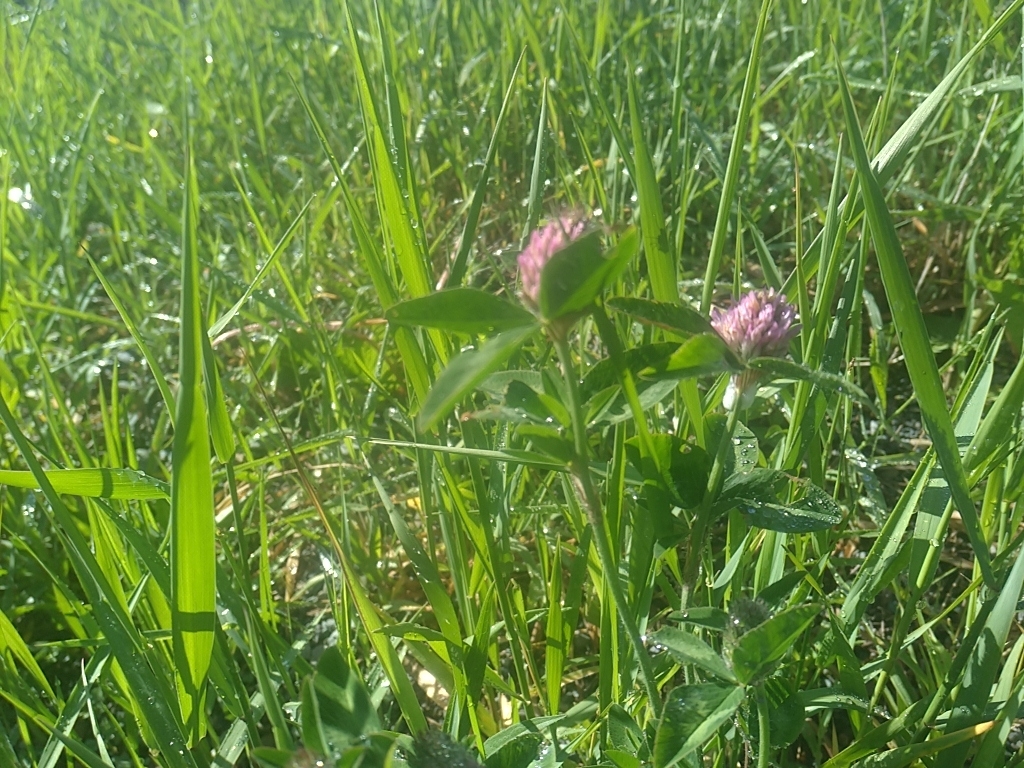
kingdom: Plantae
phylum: Tracheophyta
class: Magnoliopsida
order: Fabales
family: Fabaceae
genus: Trifolium
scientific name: Trifolium pratense
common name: Red clover
